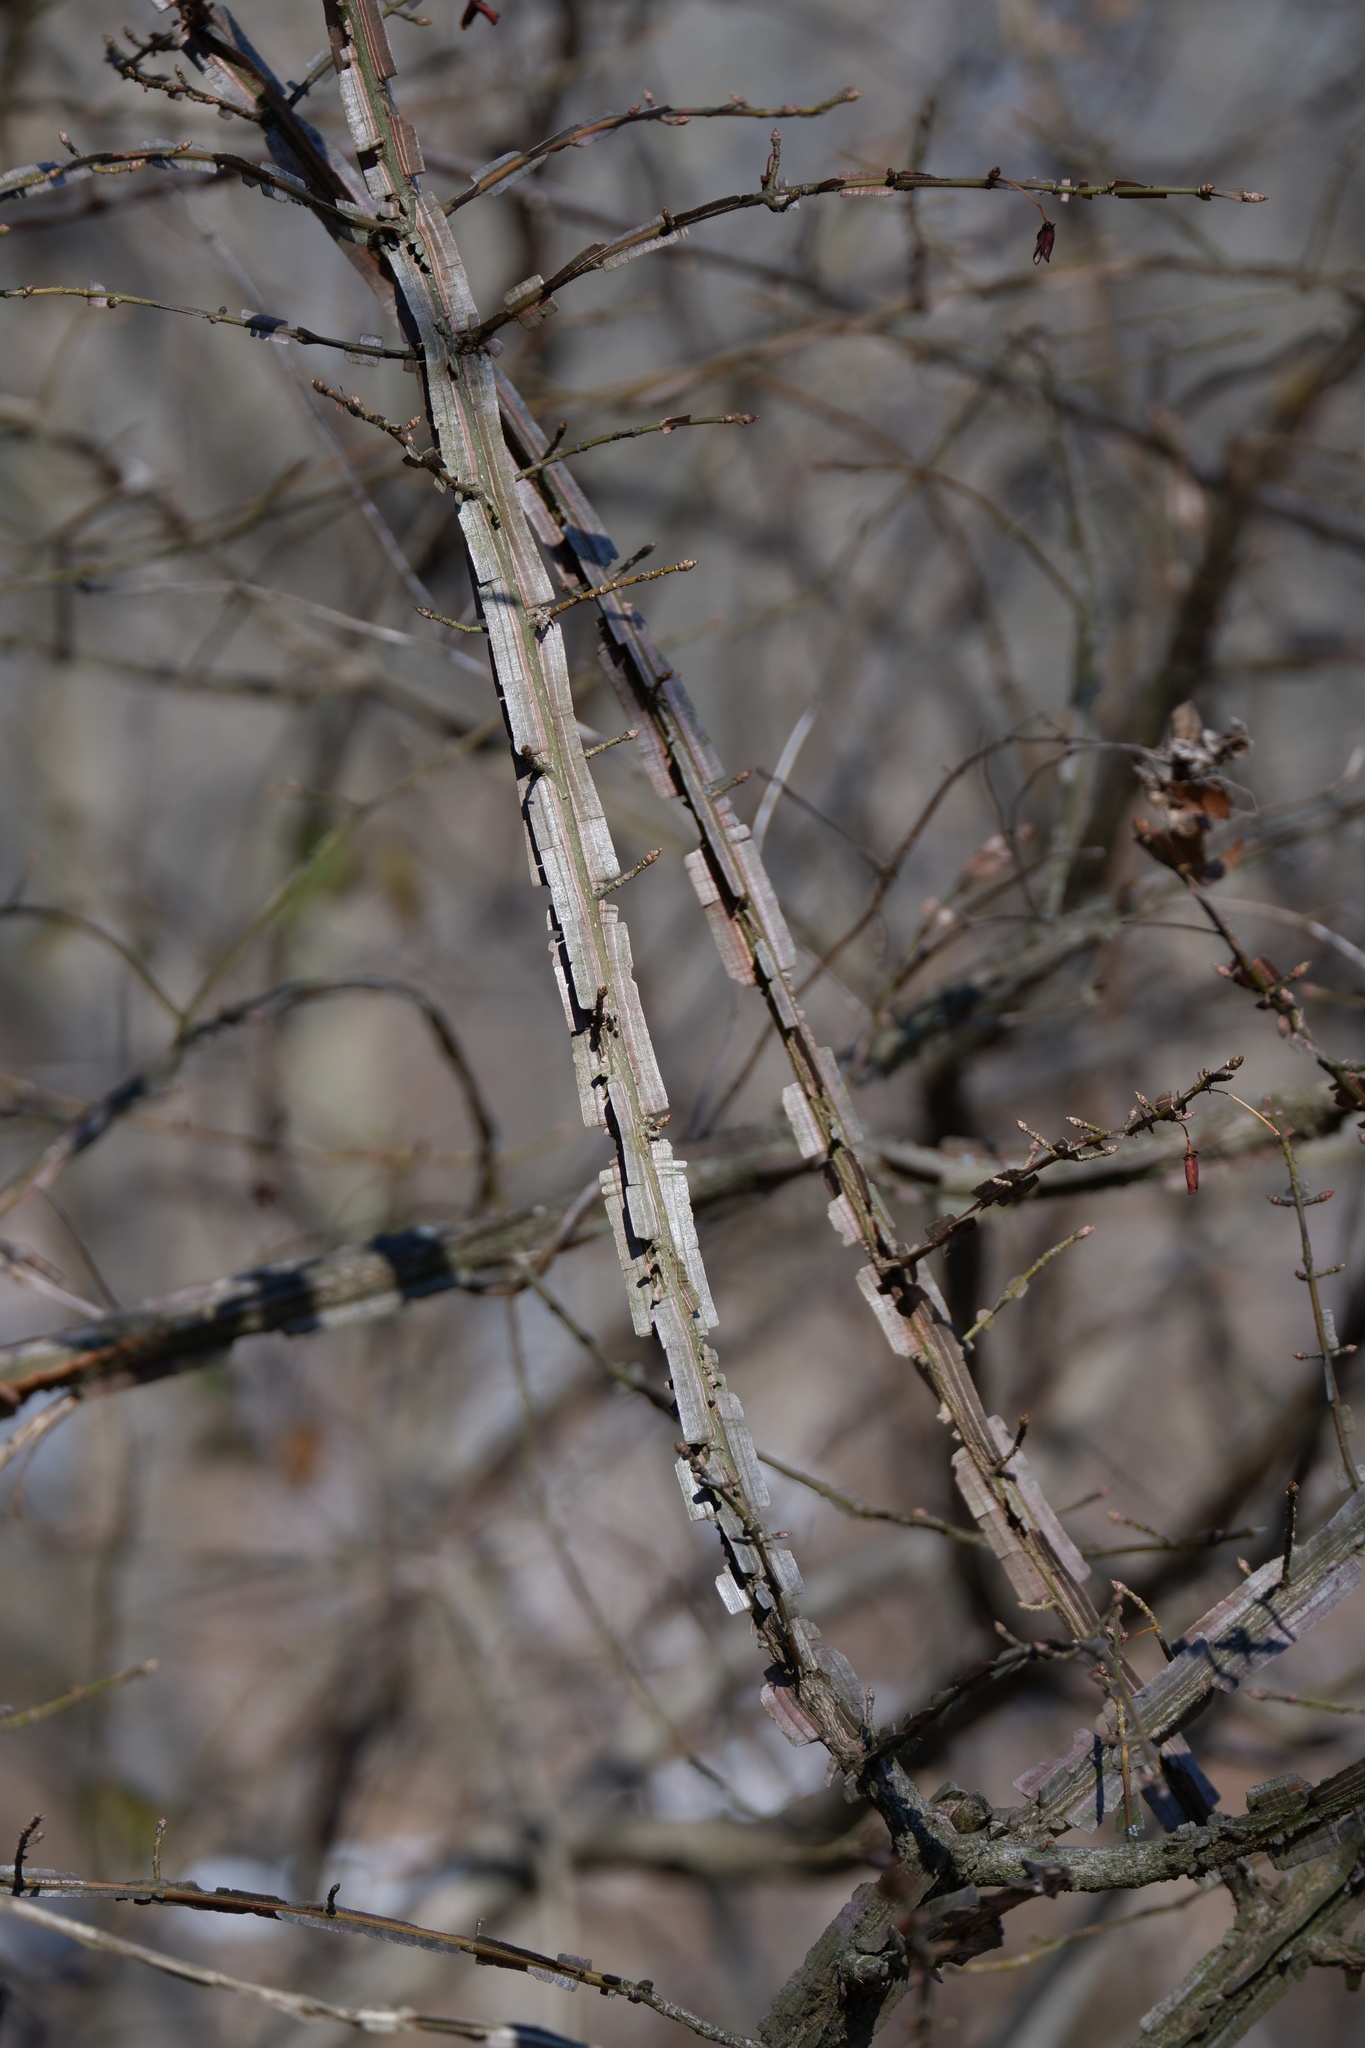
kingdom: Plantae
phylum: Tracheophyta
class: Magnoliopsida
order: Celastrales
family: Celastraceae
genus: Euonymus
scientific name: Euonymus alatus
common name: Winged euonymus
